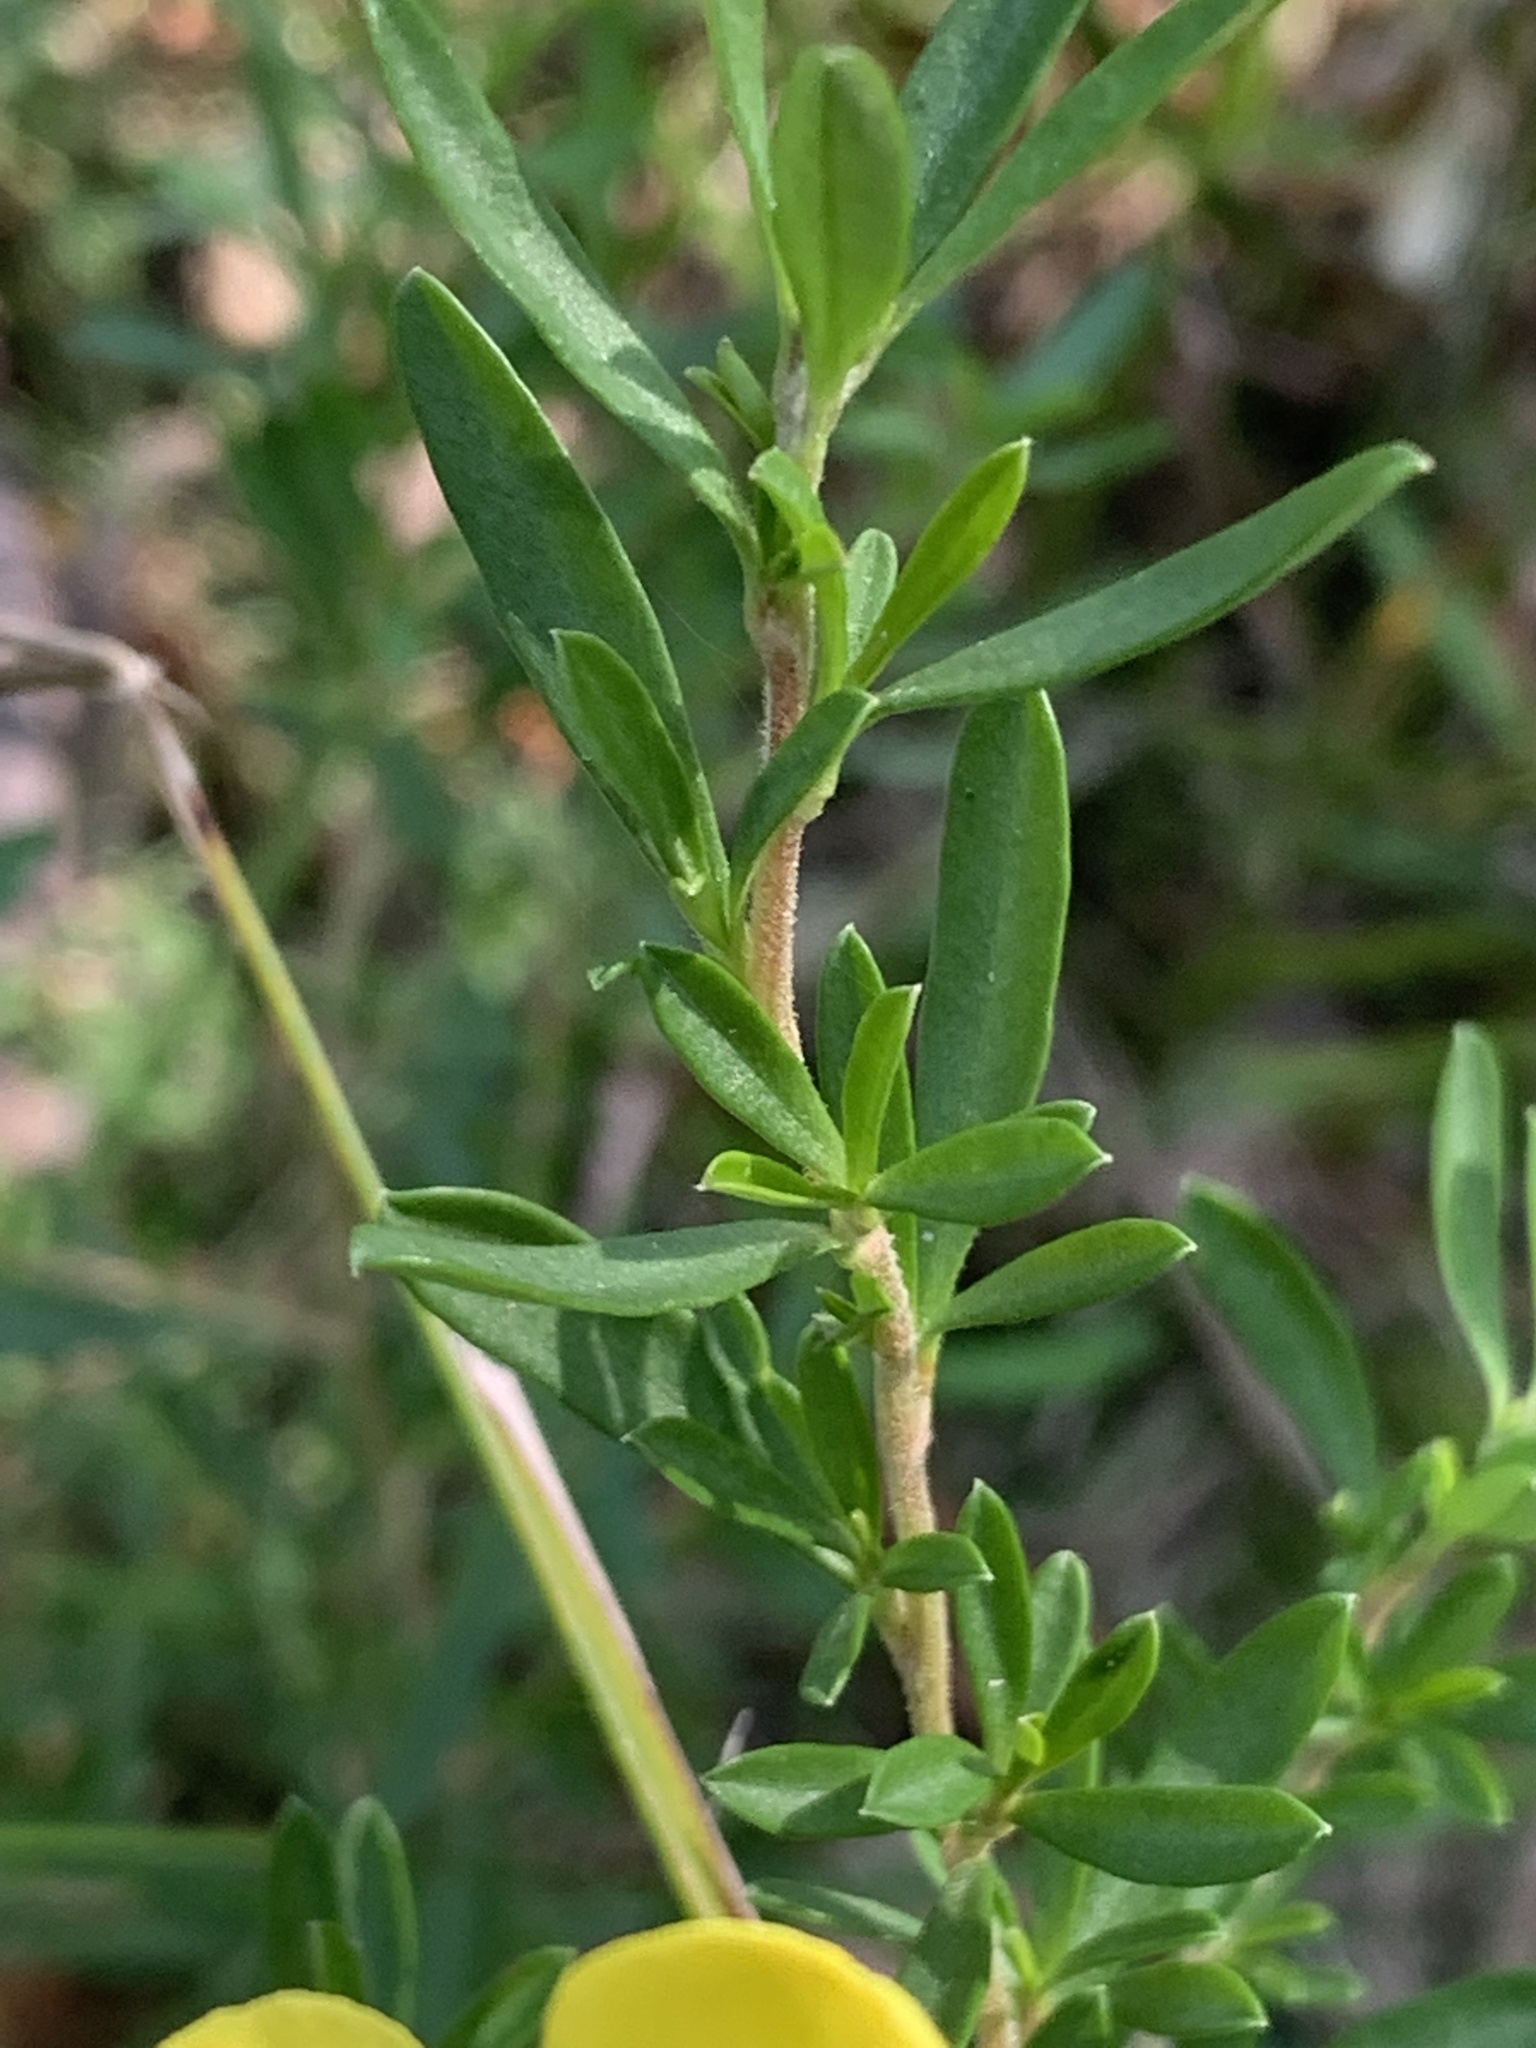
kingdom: Plantae
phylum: Tracheophyta
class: Magnoliopsida
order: Dilleniales
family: Dilleniaceae
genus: Hibbertia
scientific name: Hibbertia linearis
